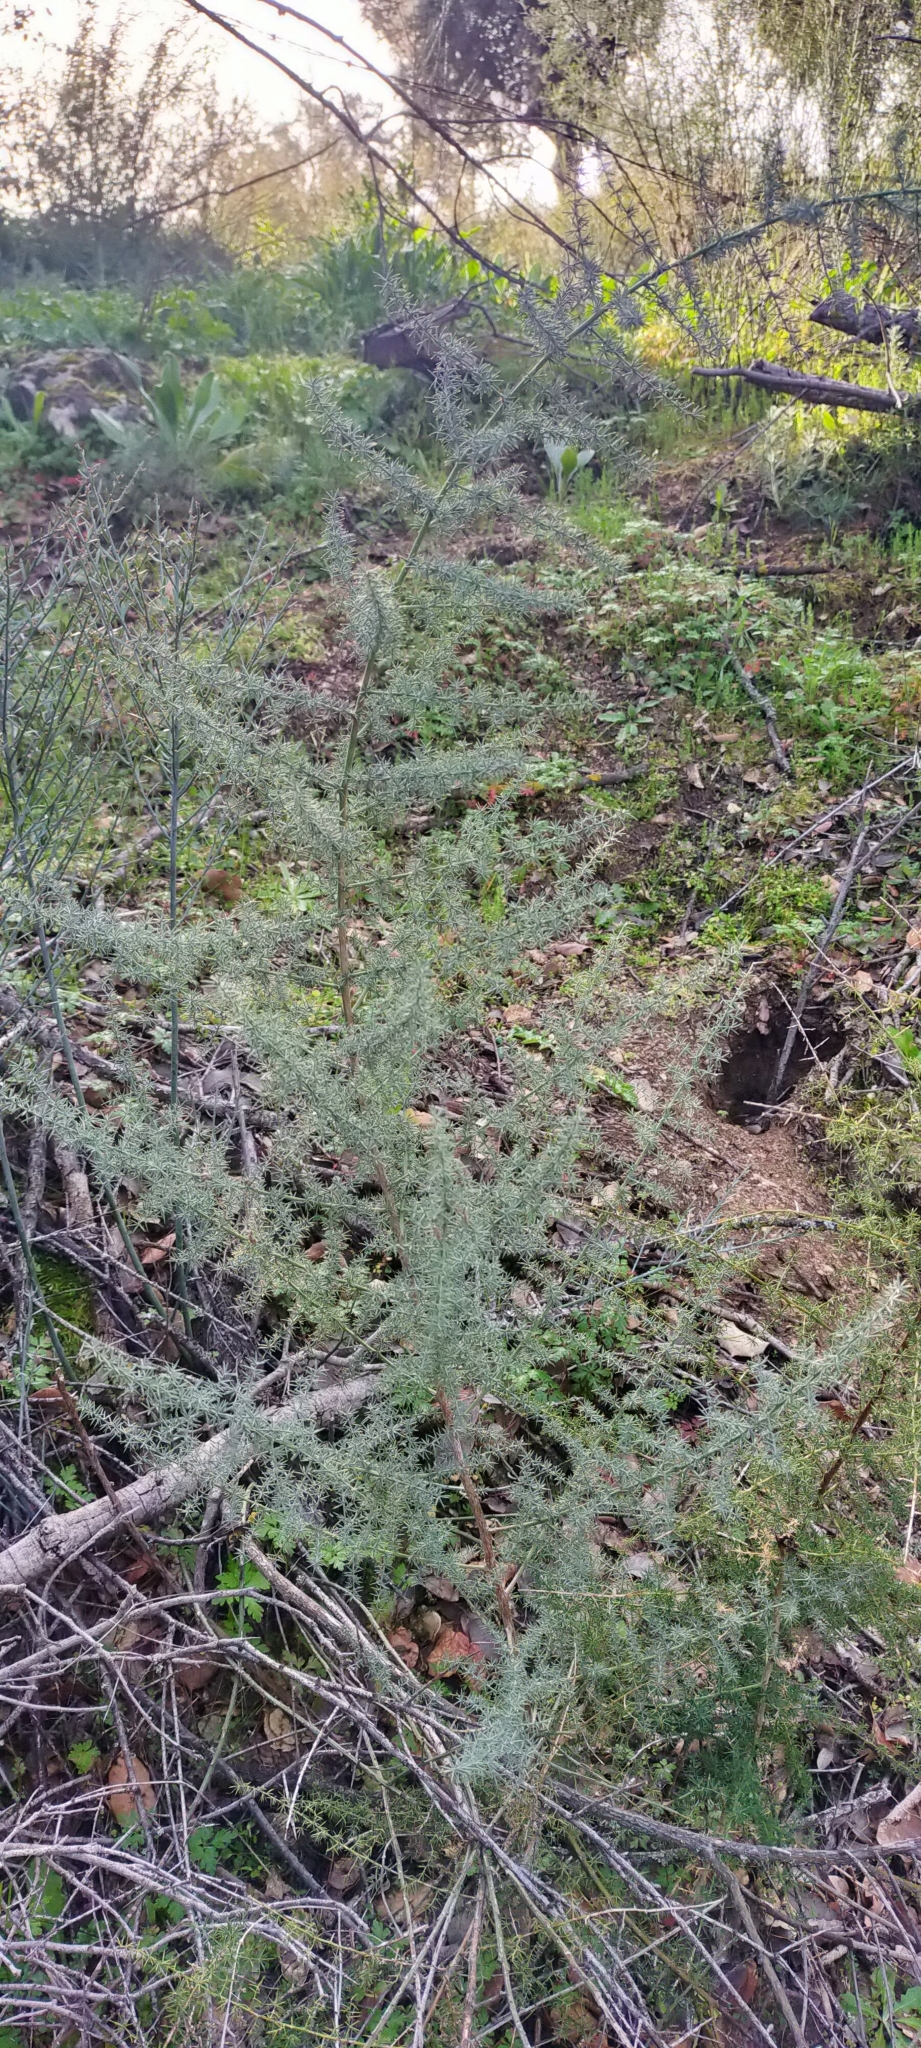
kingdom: Plantae
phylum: Tracheophyta
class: Liliopsida
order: Asparagales
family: Asparagaceae
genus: Asparagus
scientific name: Asparagus acutifolius
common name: Wild asparagus
